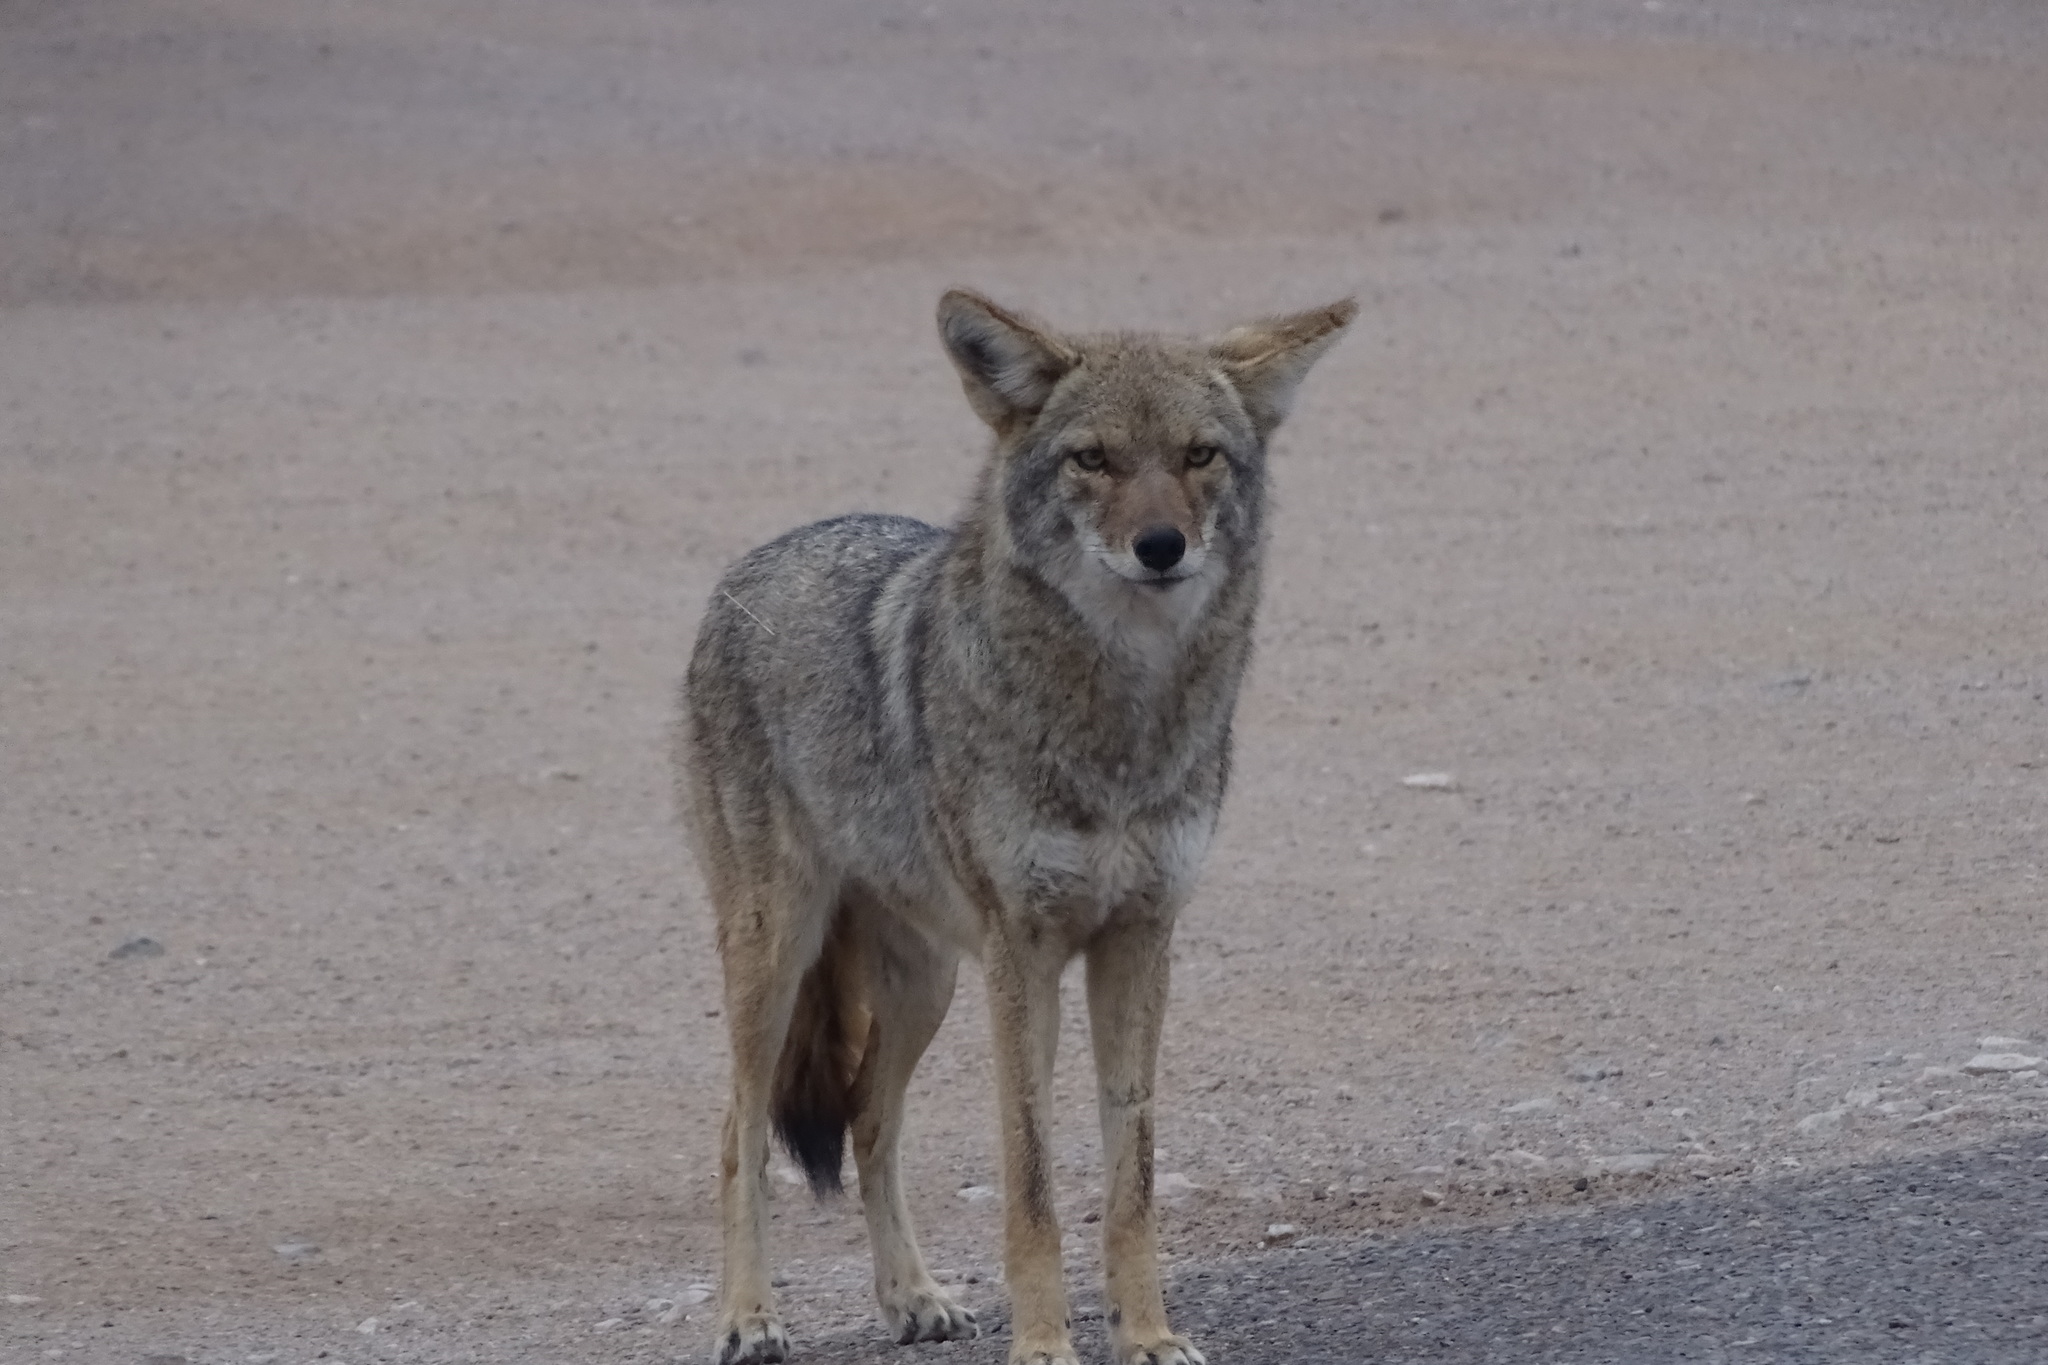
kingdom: Animalia
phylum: Chordata
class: Mammalia
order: Carnivora
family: Canidae
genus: Canis
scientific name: Canis latrans
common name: Coyote
